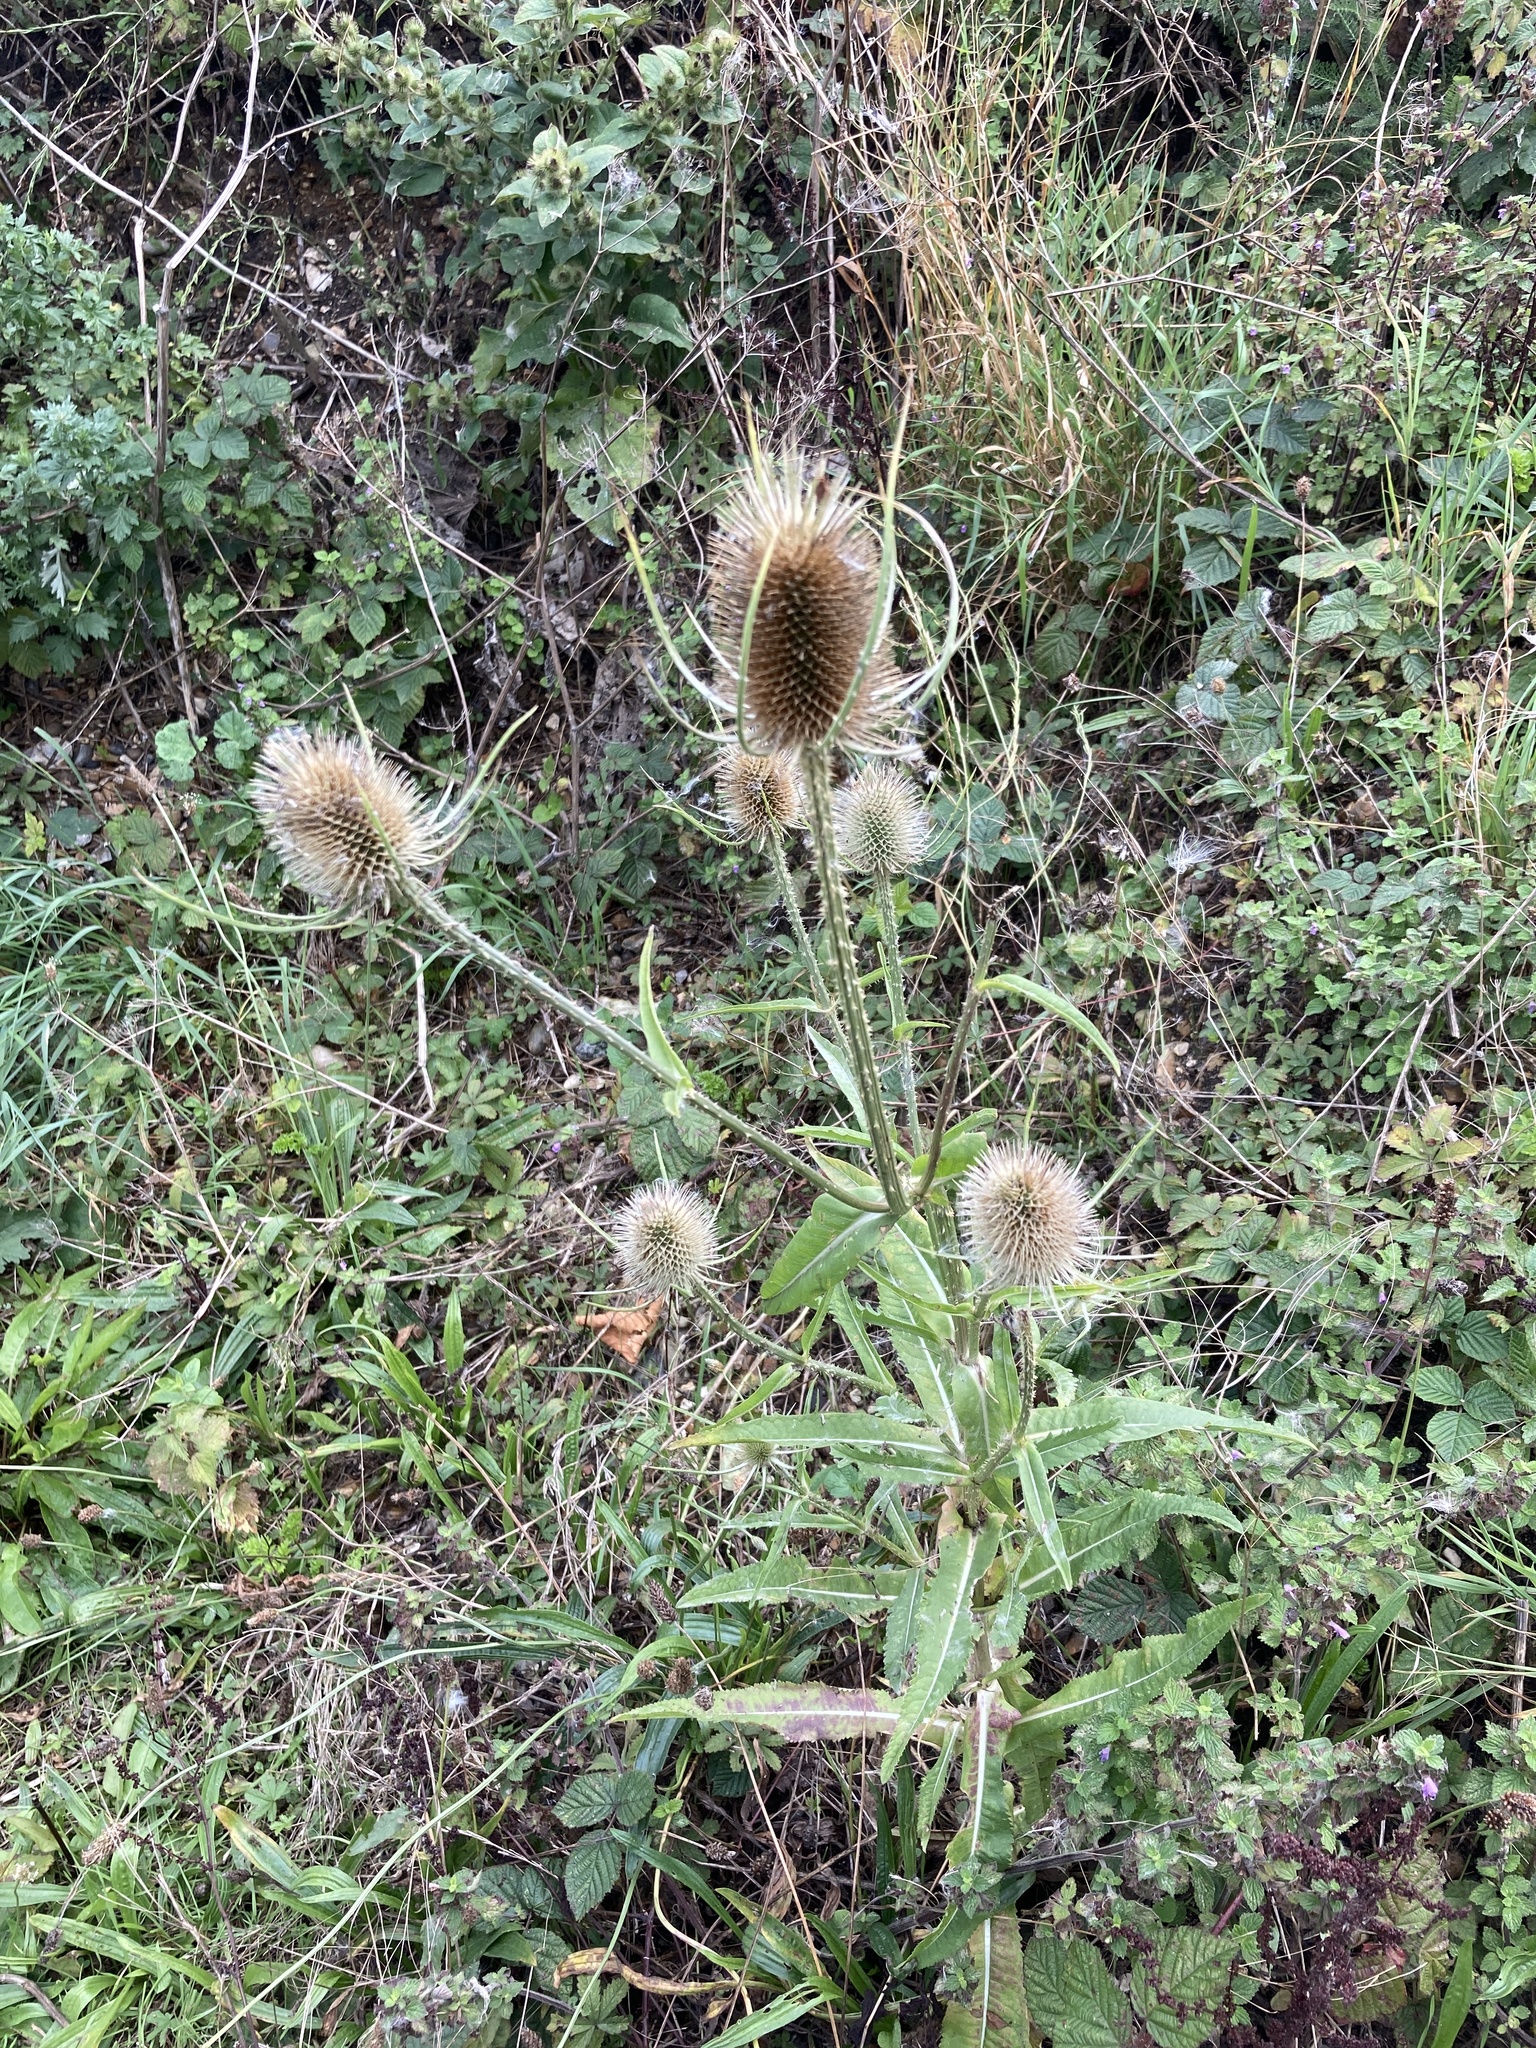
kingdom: Plantae
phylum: Tracheophyta
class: Magnoliopsida
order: Dipsacales
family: Caprifoliaceae
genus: Dipsacus
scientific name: Dipsacus fullonum
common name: Teasel
